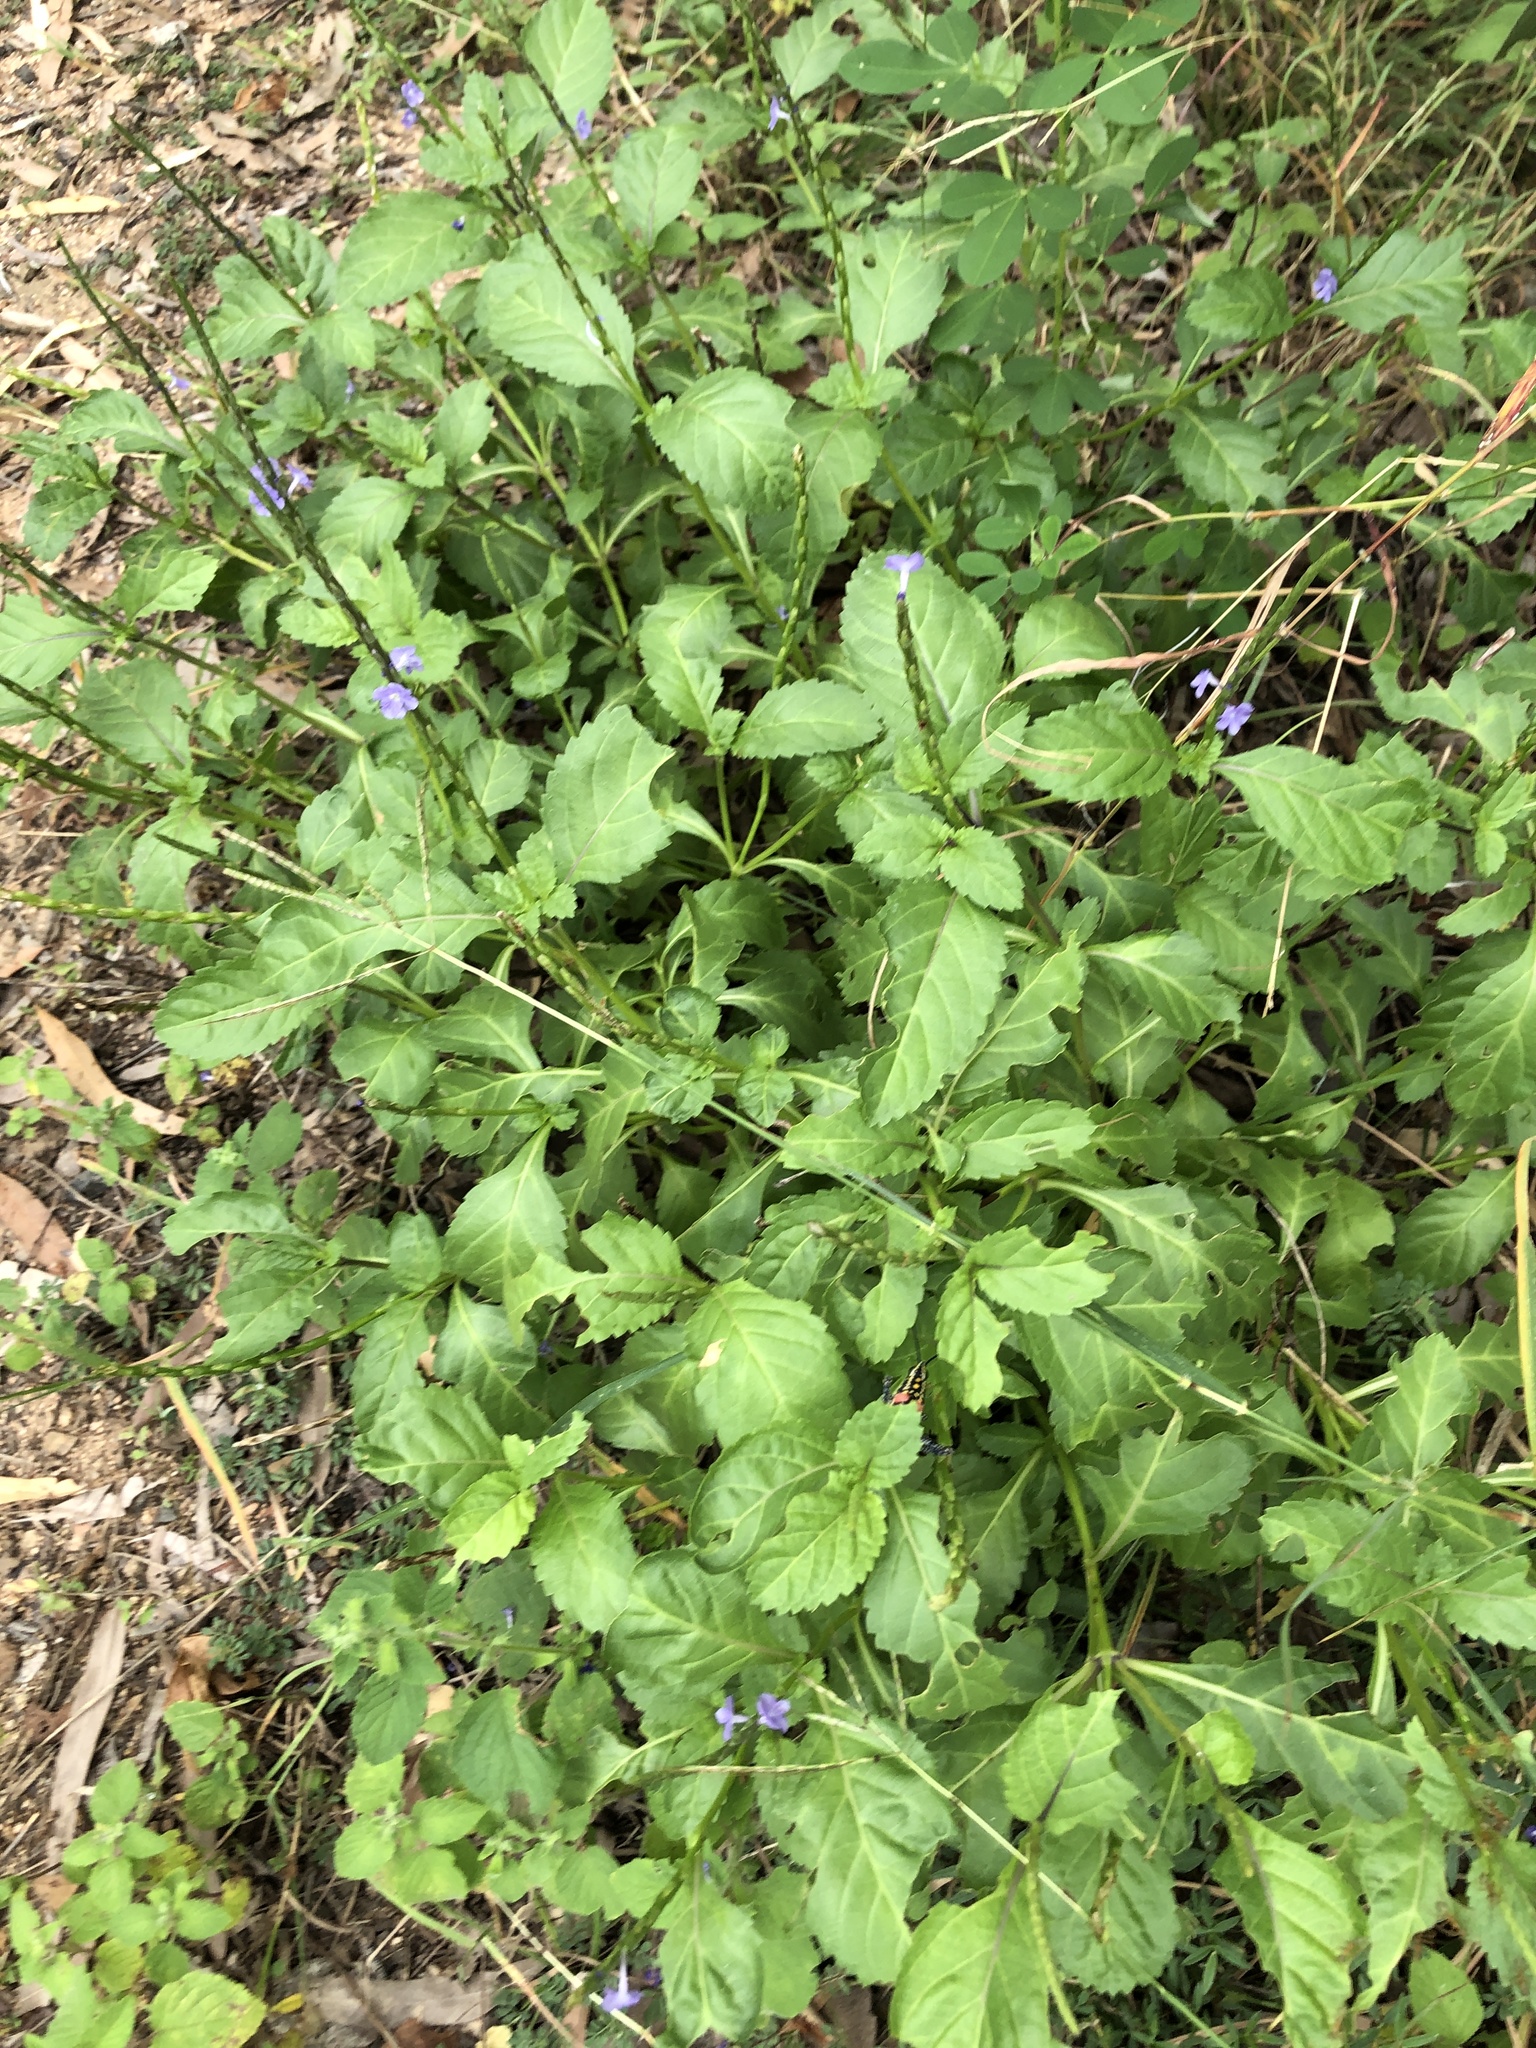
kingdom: Plantae
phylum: Tracheophyta
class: Magnoliopsida
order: Lamiales
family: Verbenaceae
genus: Stachytarpheta
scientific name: Stachytarpheta jamaicensis
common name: Light-blue snakeweed
